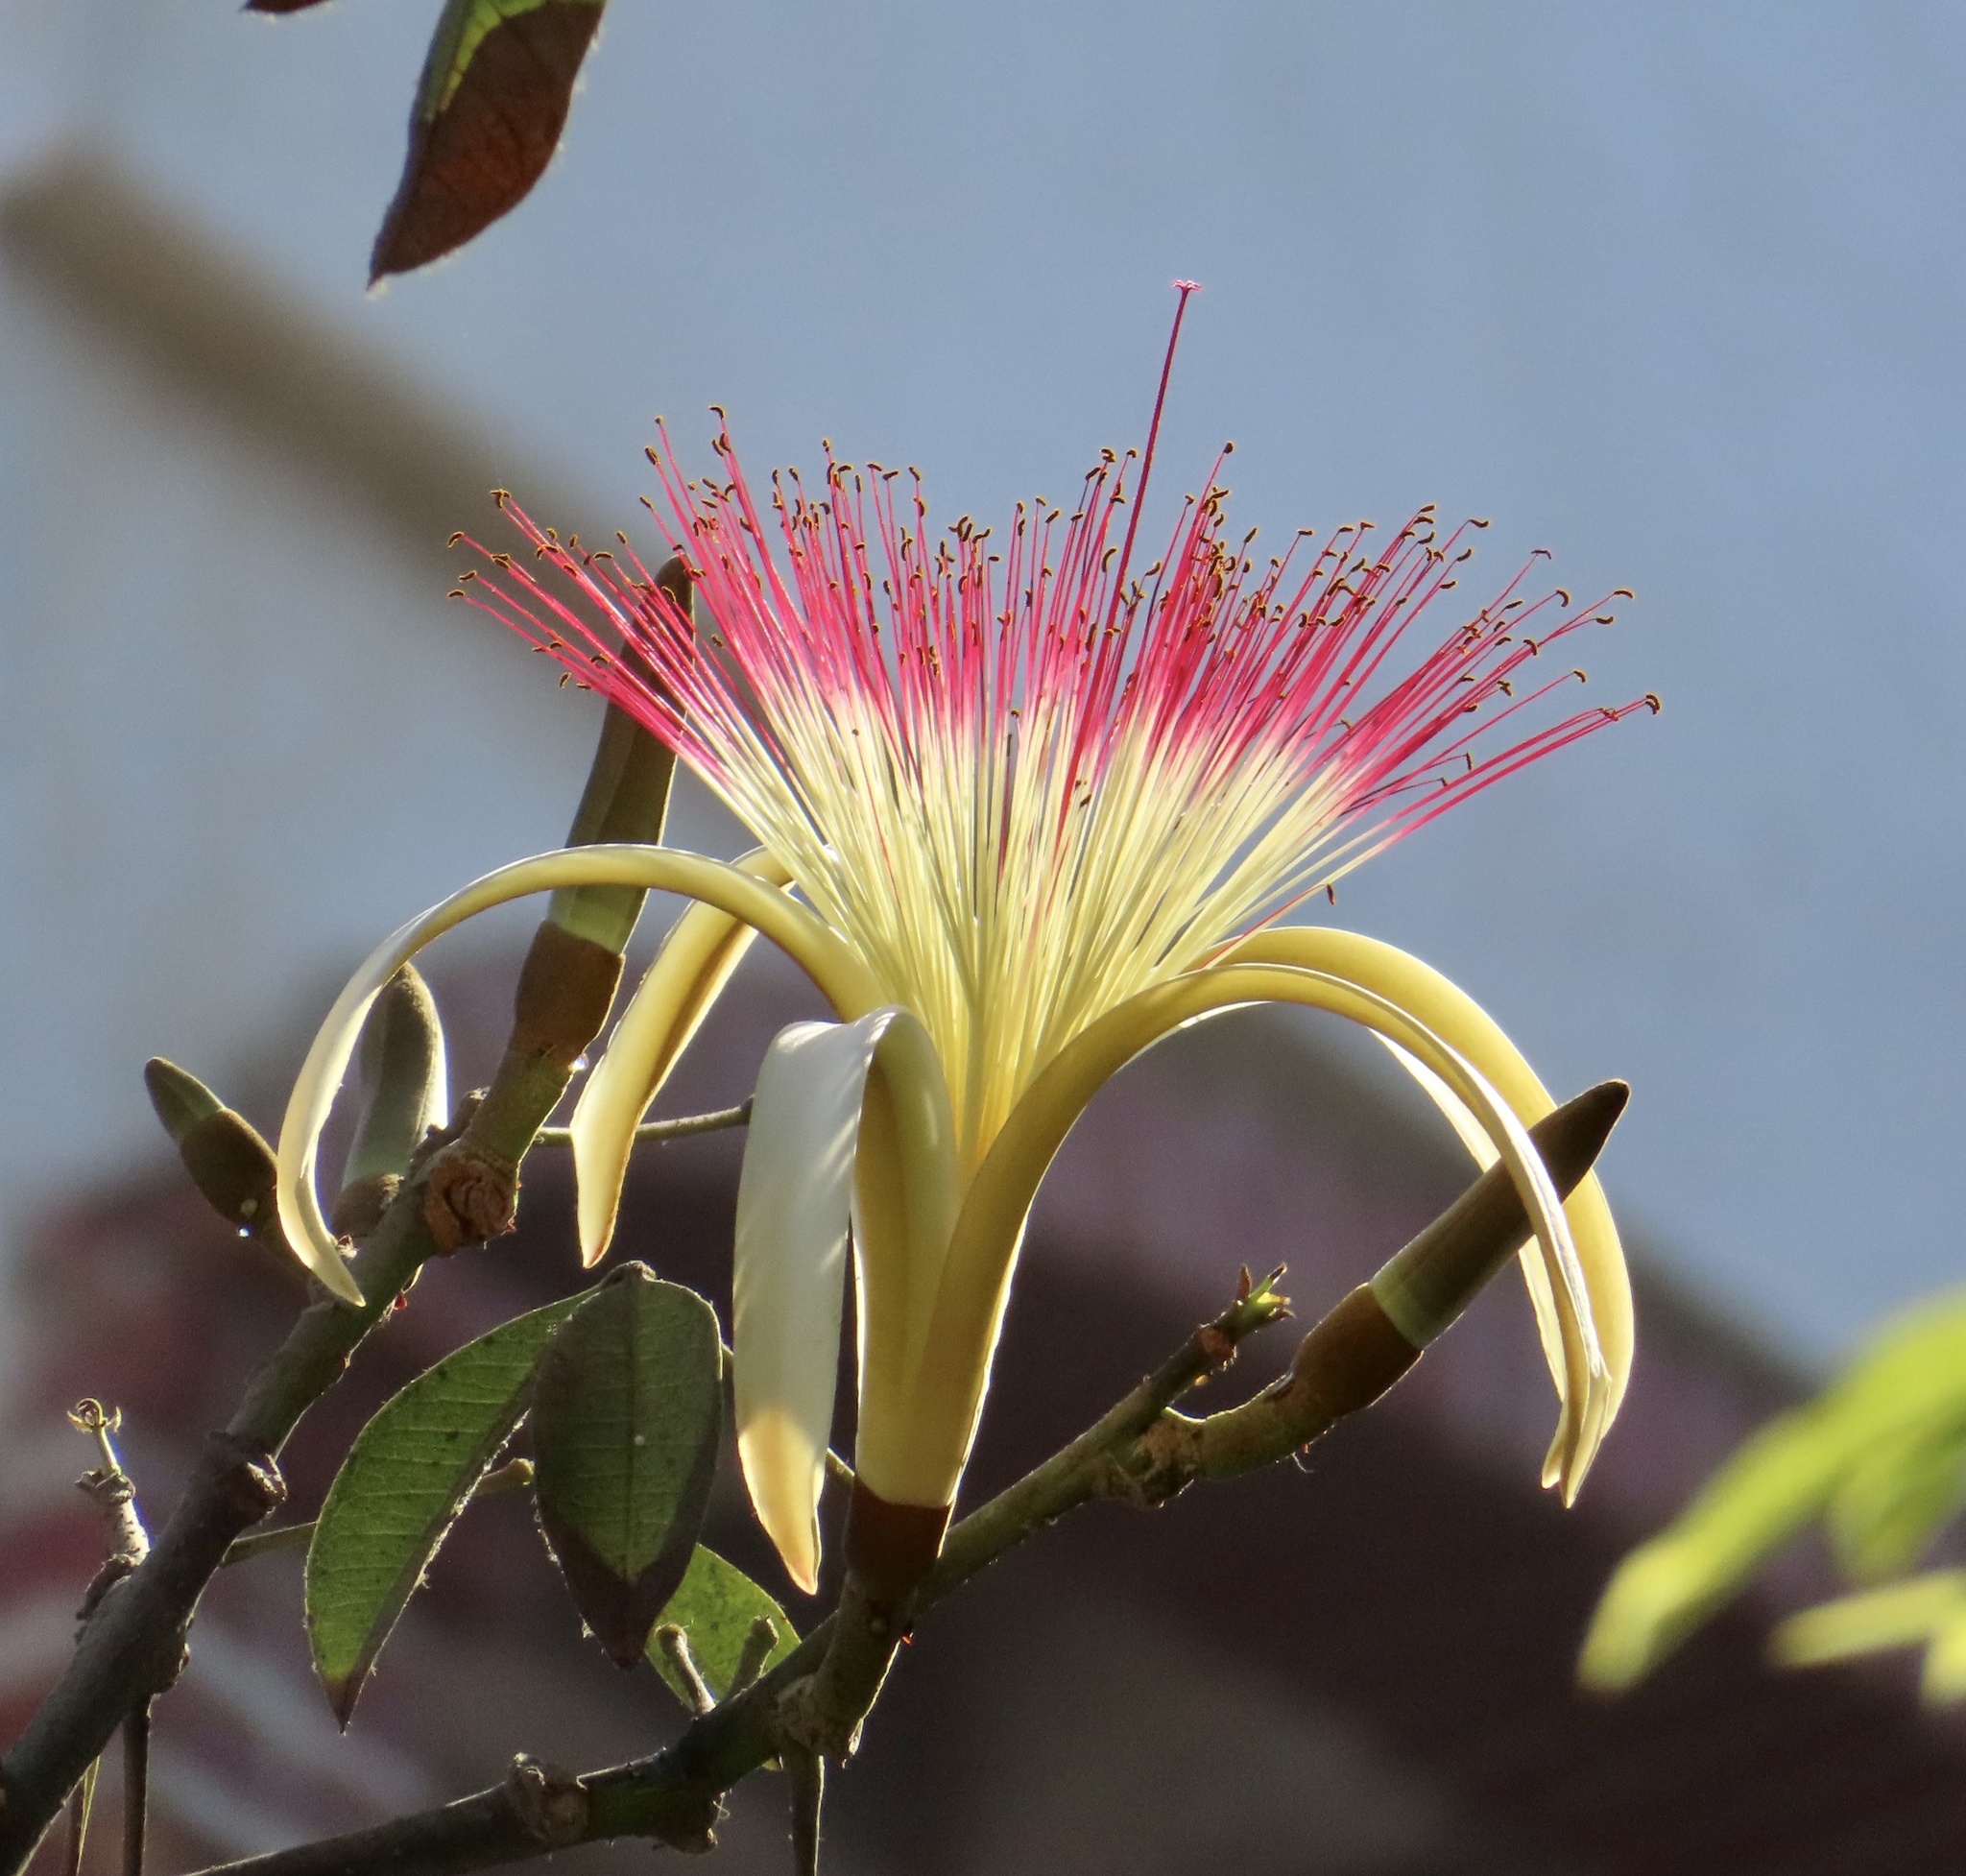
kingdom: Plantae
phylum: Tracheophyta
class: Magnoliopsida
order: Malvales
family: Malvaceae
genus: Pachira
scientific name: Pachira aquatica
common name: Provision-tree
